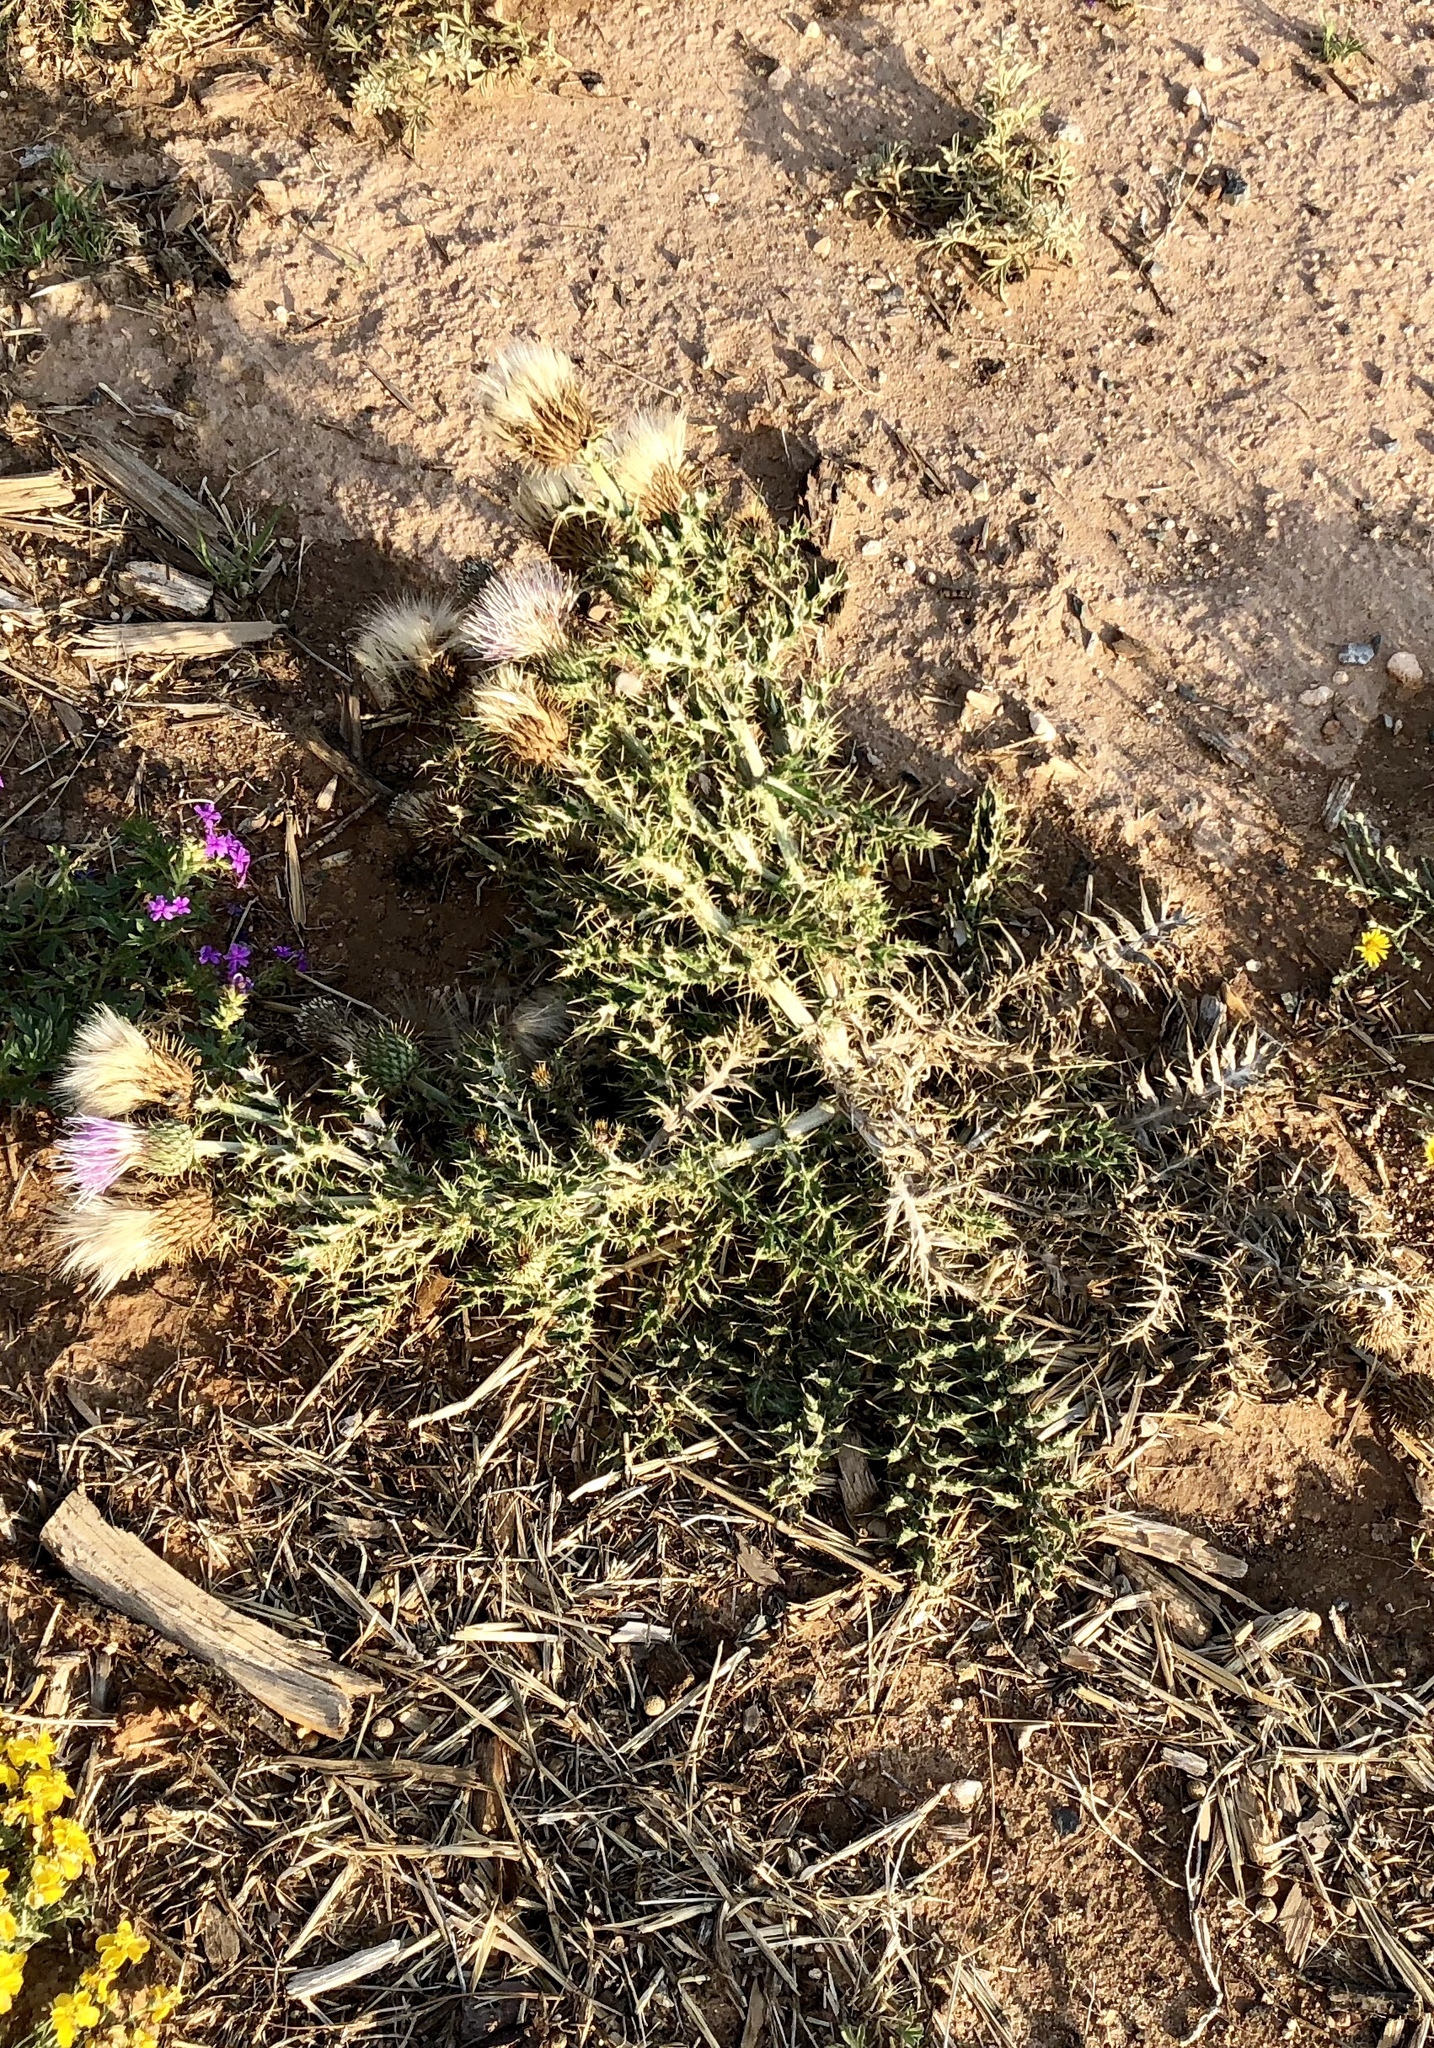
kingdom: Plantae
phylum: Tracheophyta
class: Magnoliopsida
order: Asterales
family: Asteraceae
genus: Cirsium
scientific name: Cirsium ochrocentrum
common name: Yellow-spine thistle
